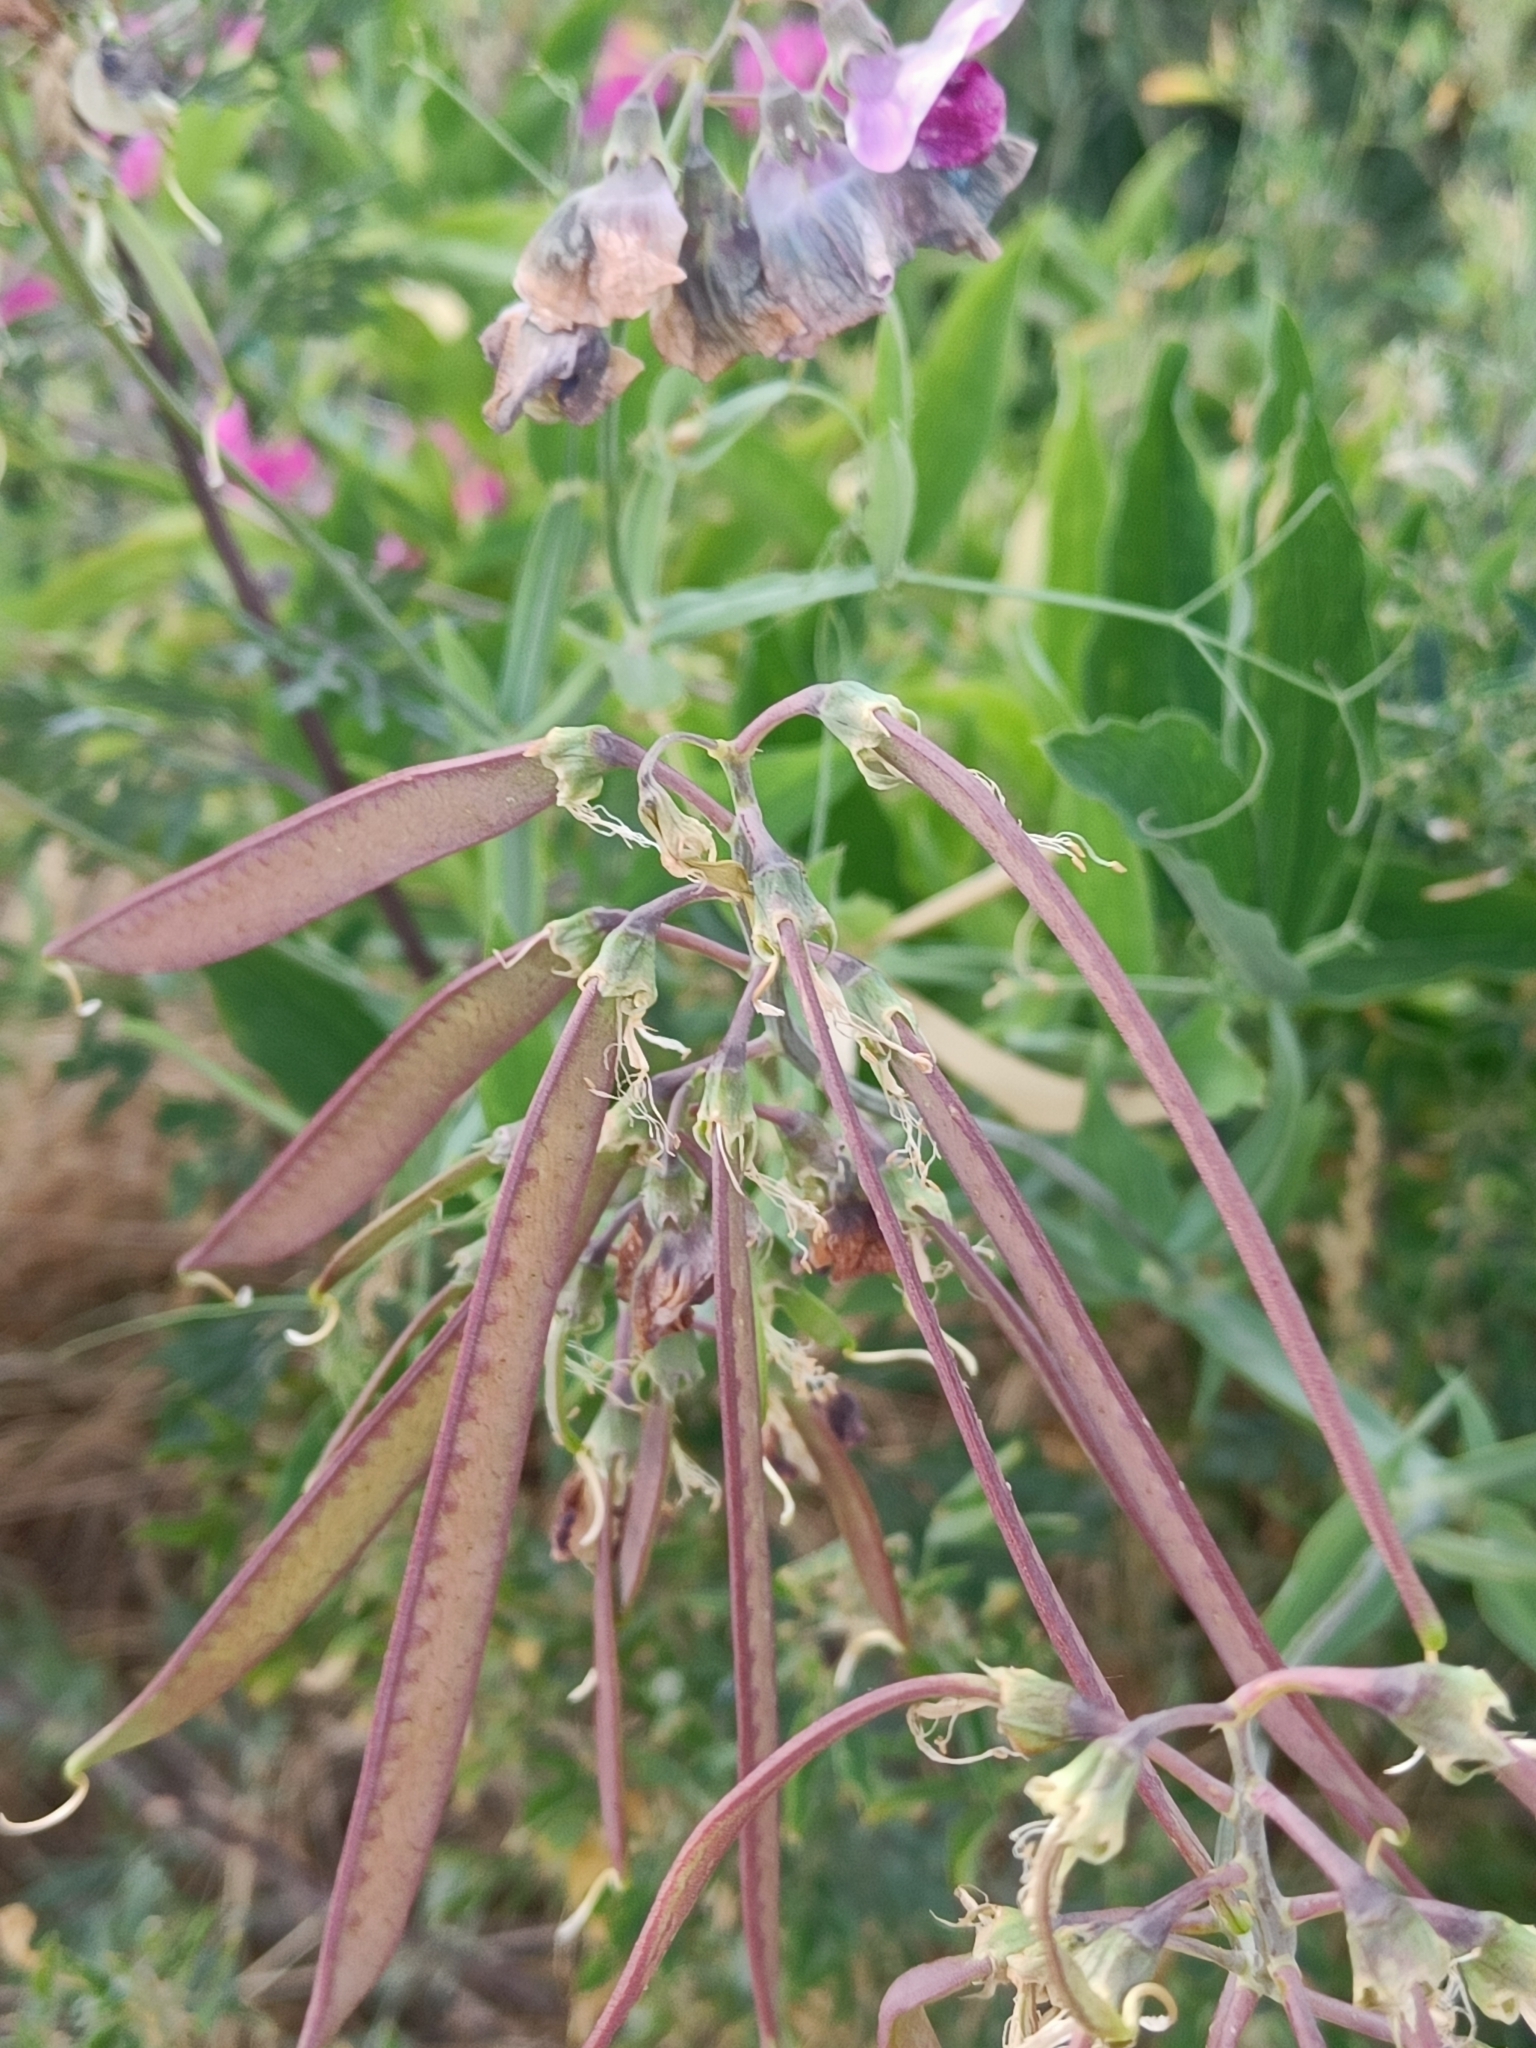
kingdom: Plantae
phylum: Tracheophyta
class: Magnoliopsida
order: Fabales
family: Fabaceae
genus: Lathyrus
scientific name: Lathyrus latifolius
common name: Perennial pea
